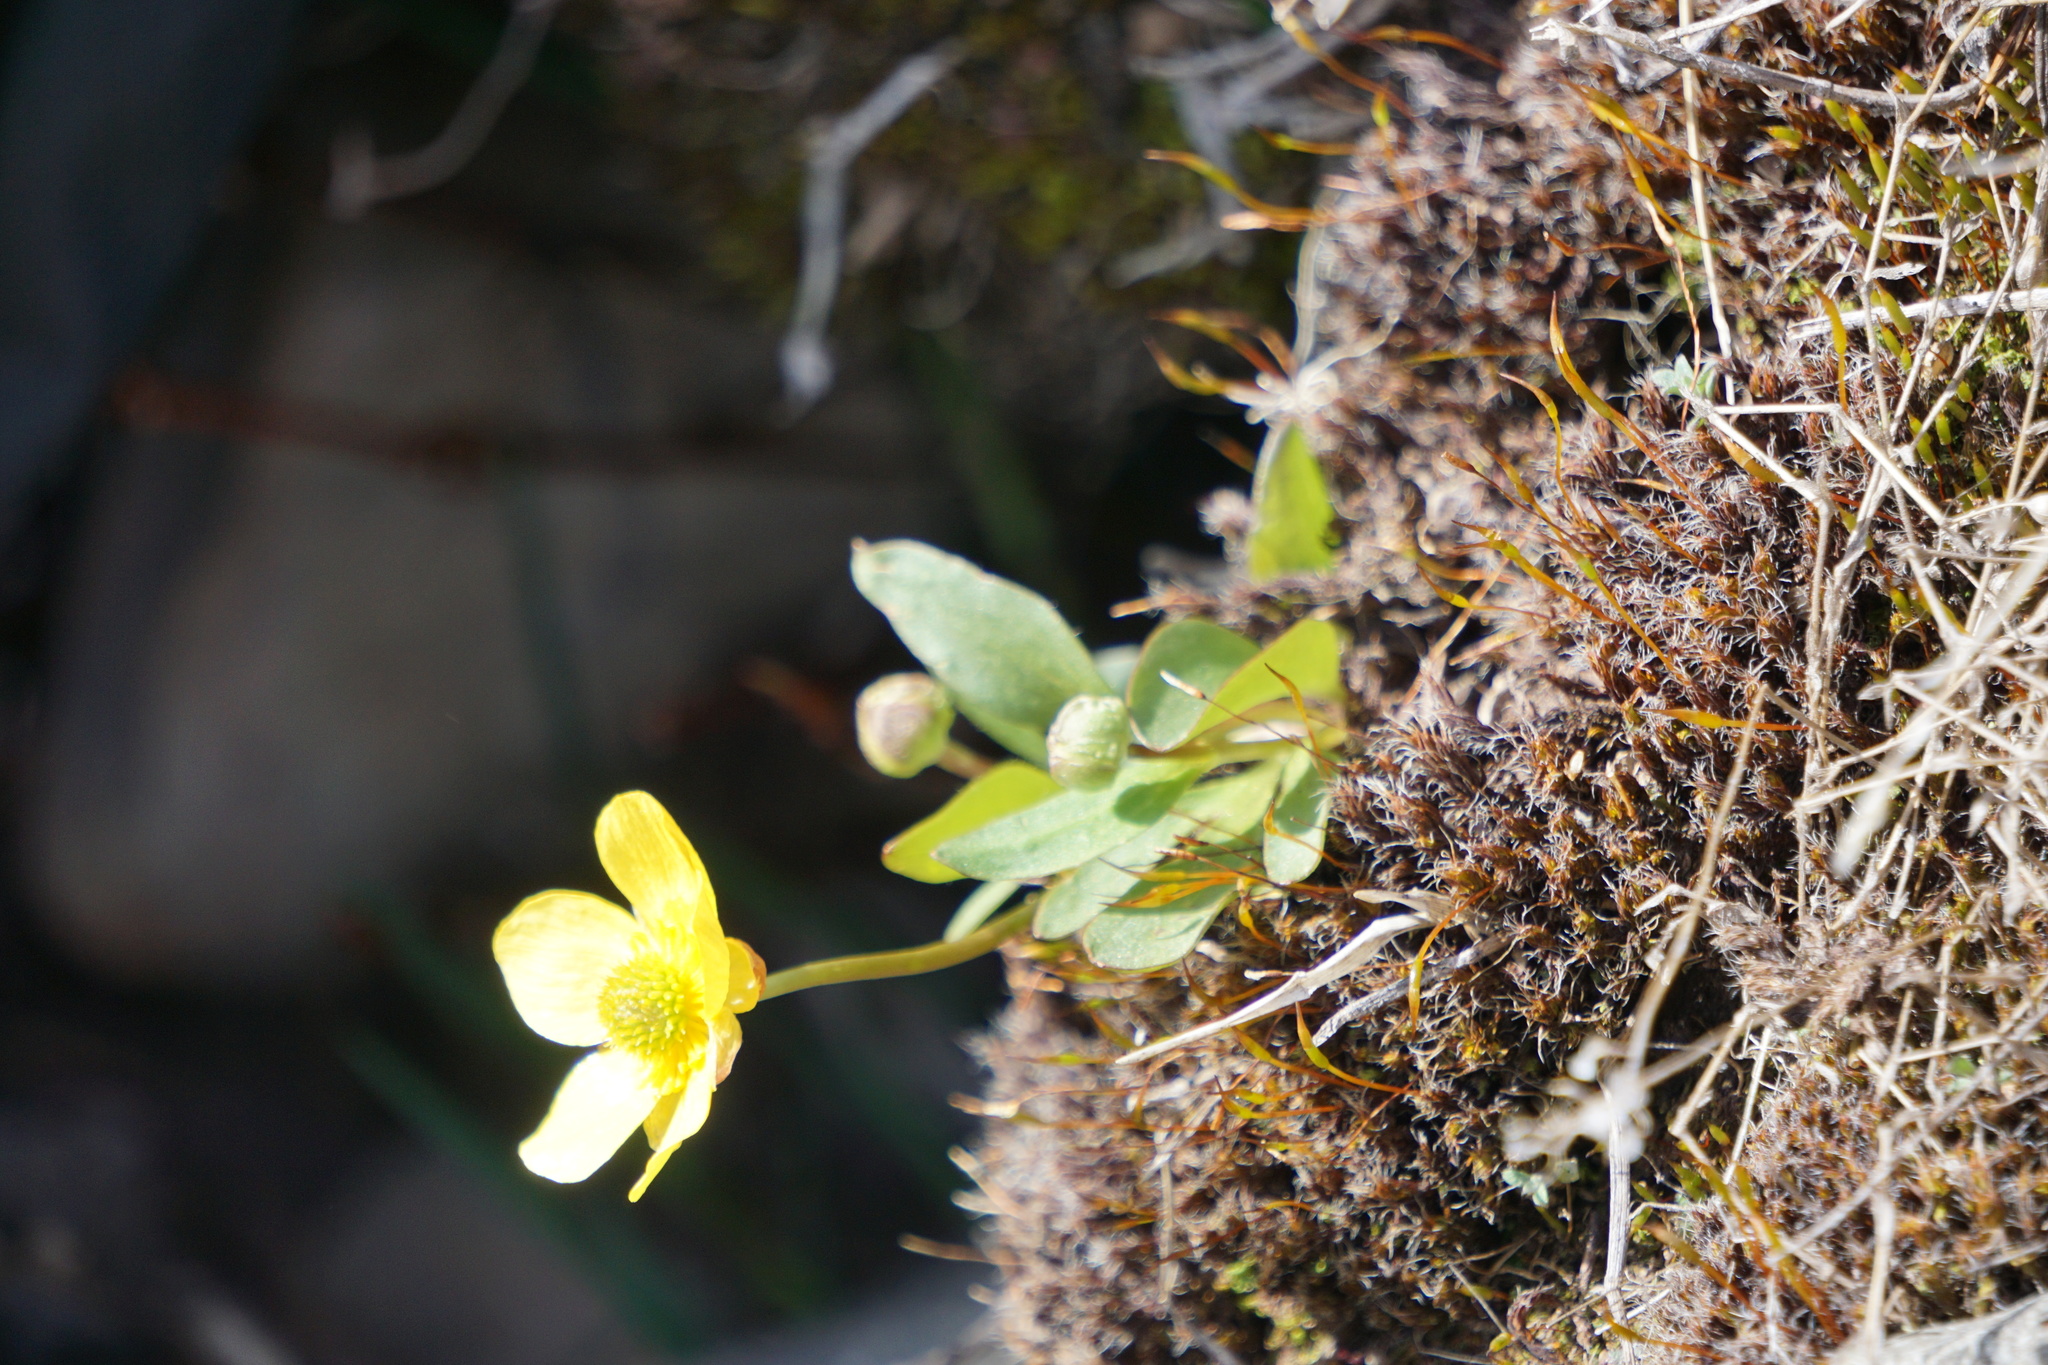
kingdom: Plantae
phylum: Tracheophyta
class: Magnoliopsida
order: Ranunculales
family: Ranunculaceae
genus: Ranunculus
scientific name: Ranunculus glaberrimus
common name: Sagebrush buttercup
